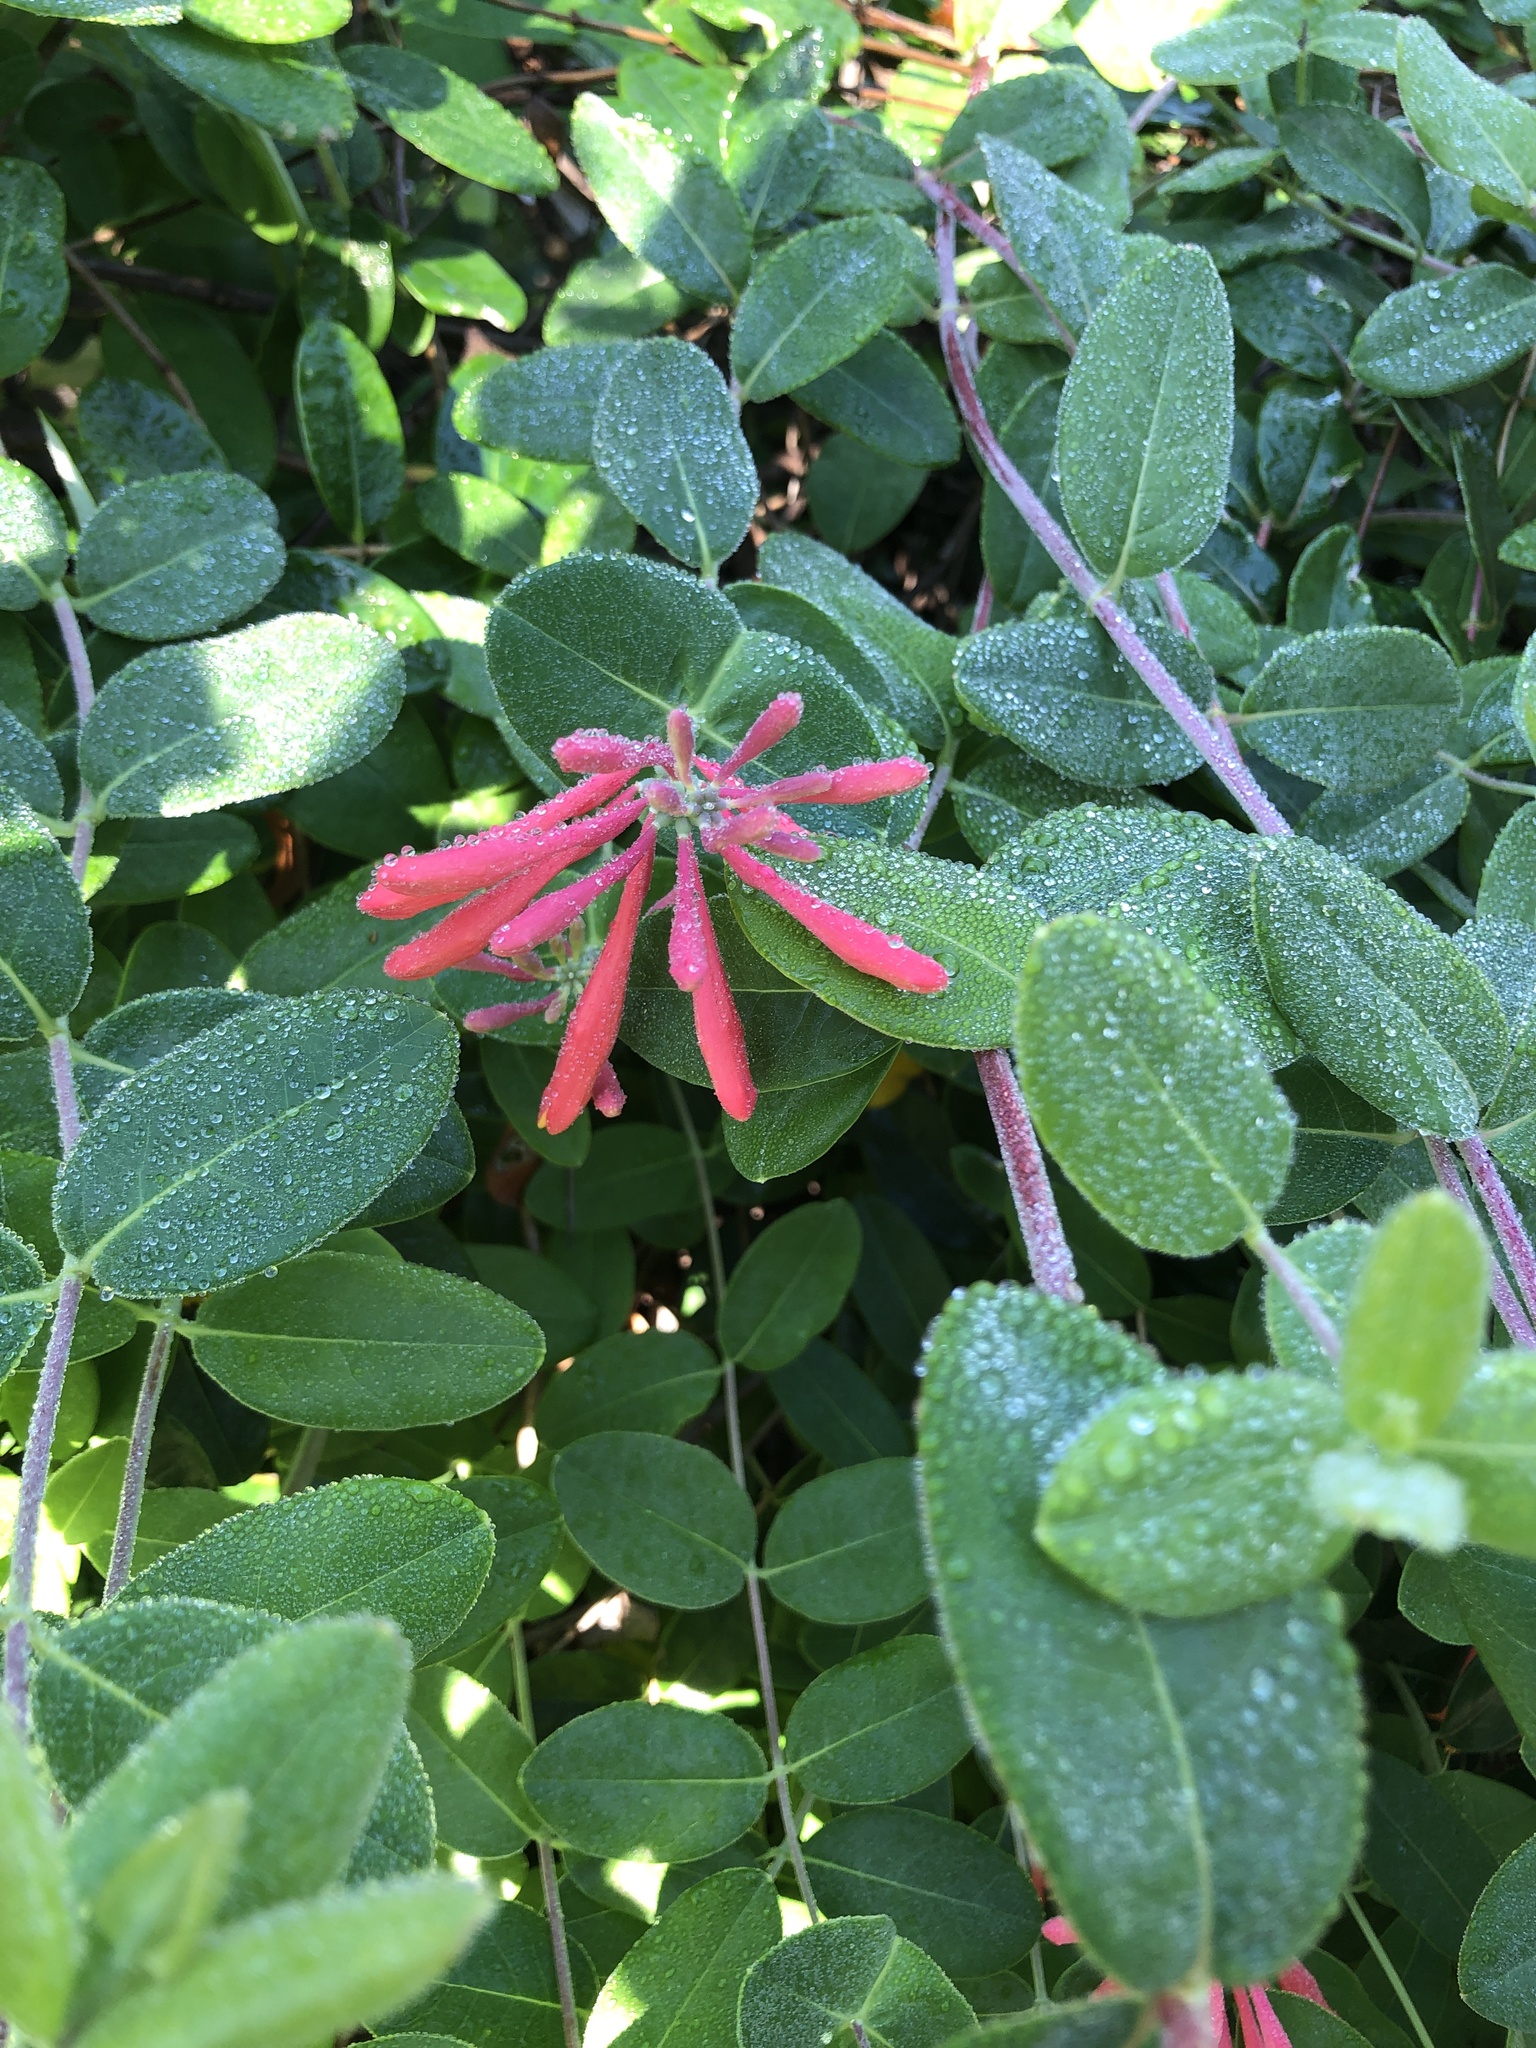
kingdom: Plantae
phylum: Tracheophyta
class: Magnoliopsida
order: Dipsacales
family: Caprifoliaceae
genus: Lonicera
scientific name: Lonicera sempervirens
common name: Coral honeysuckle
